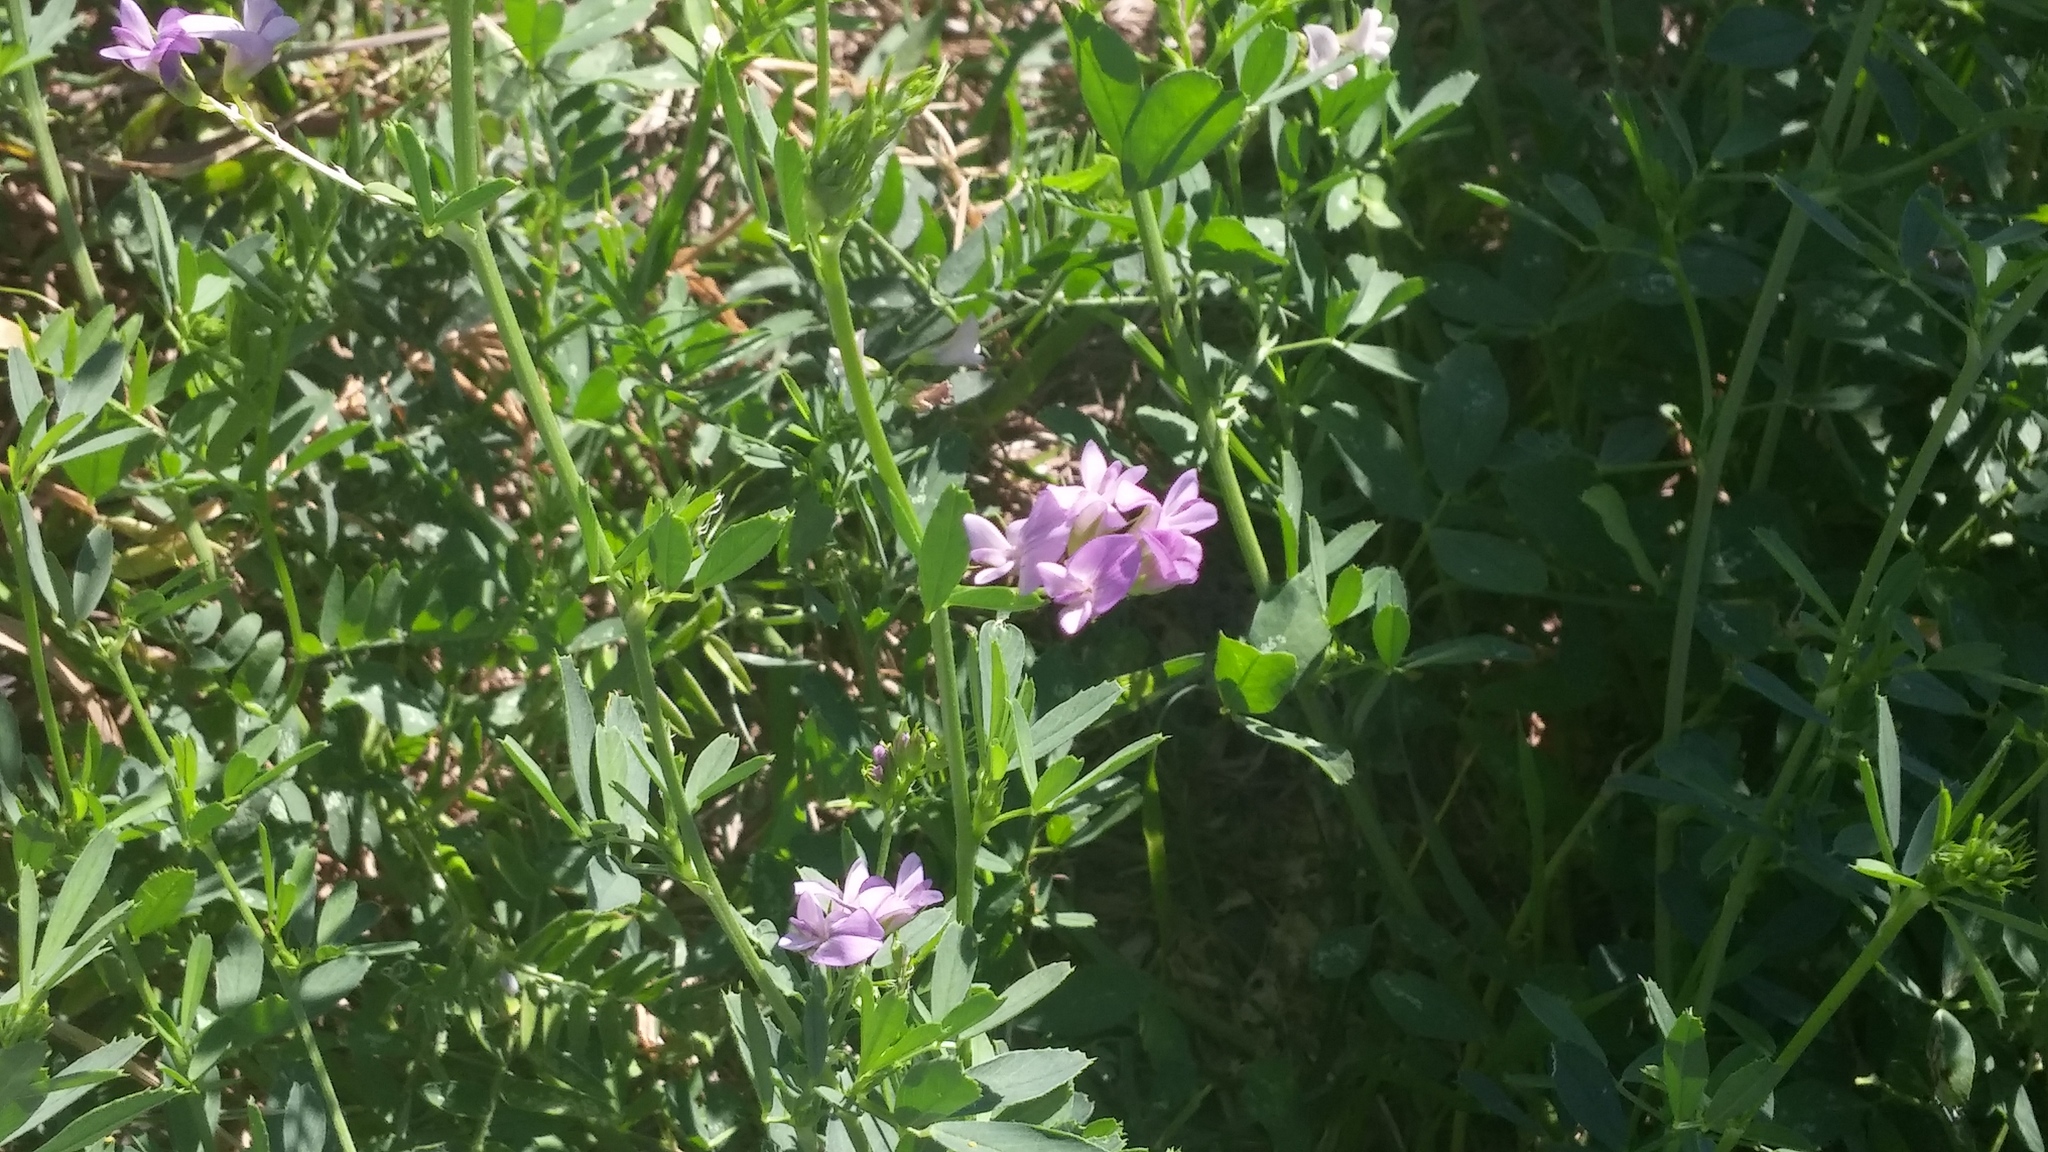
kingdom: Plantae
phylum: Tracheophyta
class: Magnoliopsida
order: Fabales
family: Fabaceae
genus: Medicago
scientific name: Medicago sativa
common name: Alfalfa
